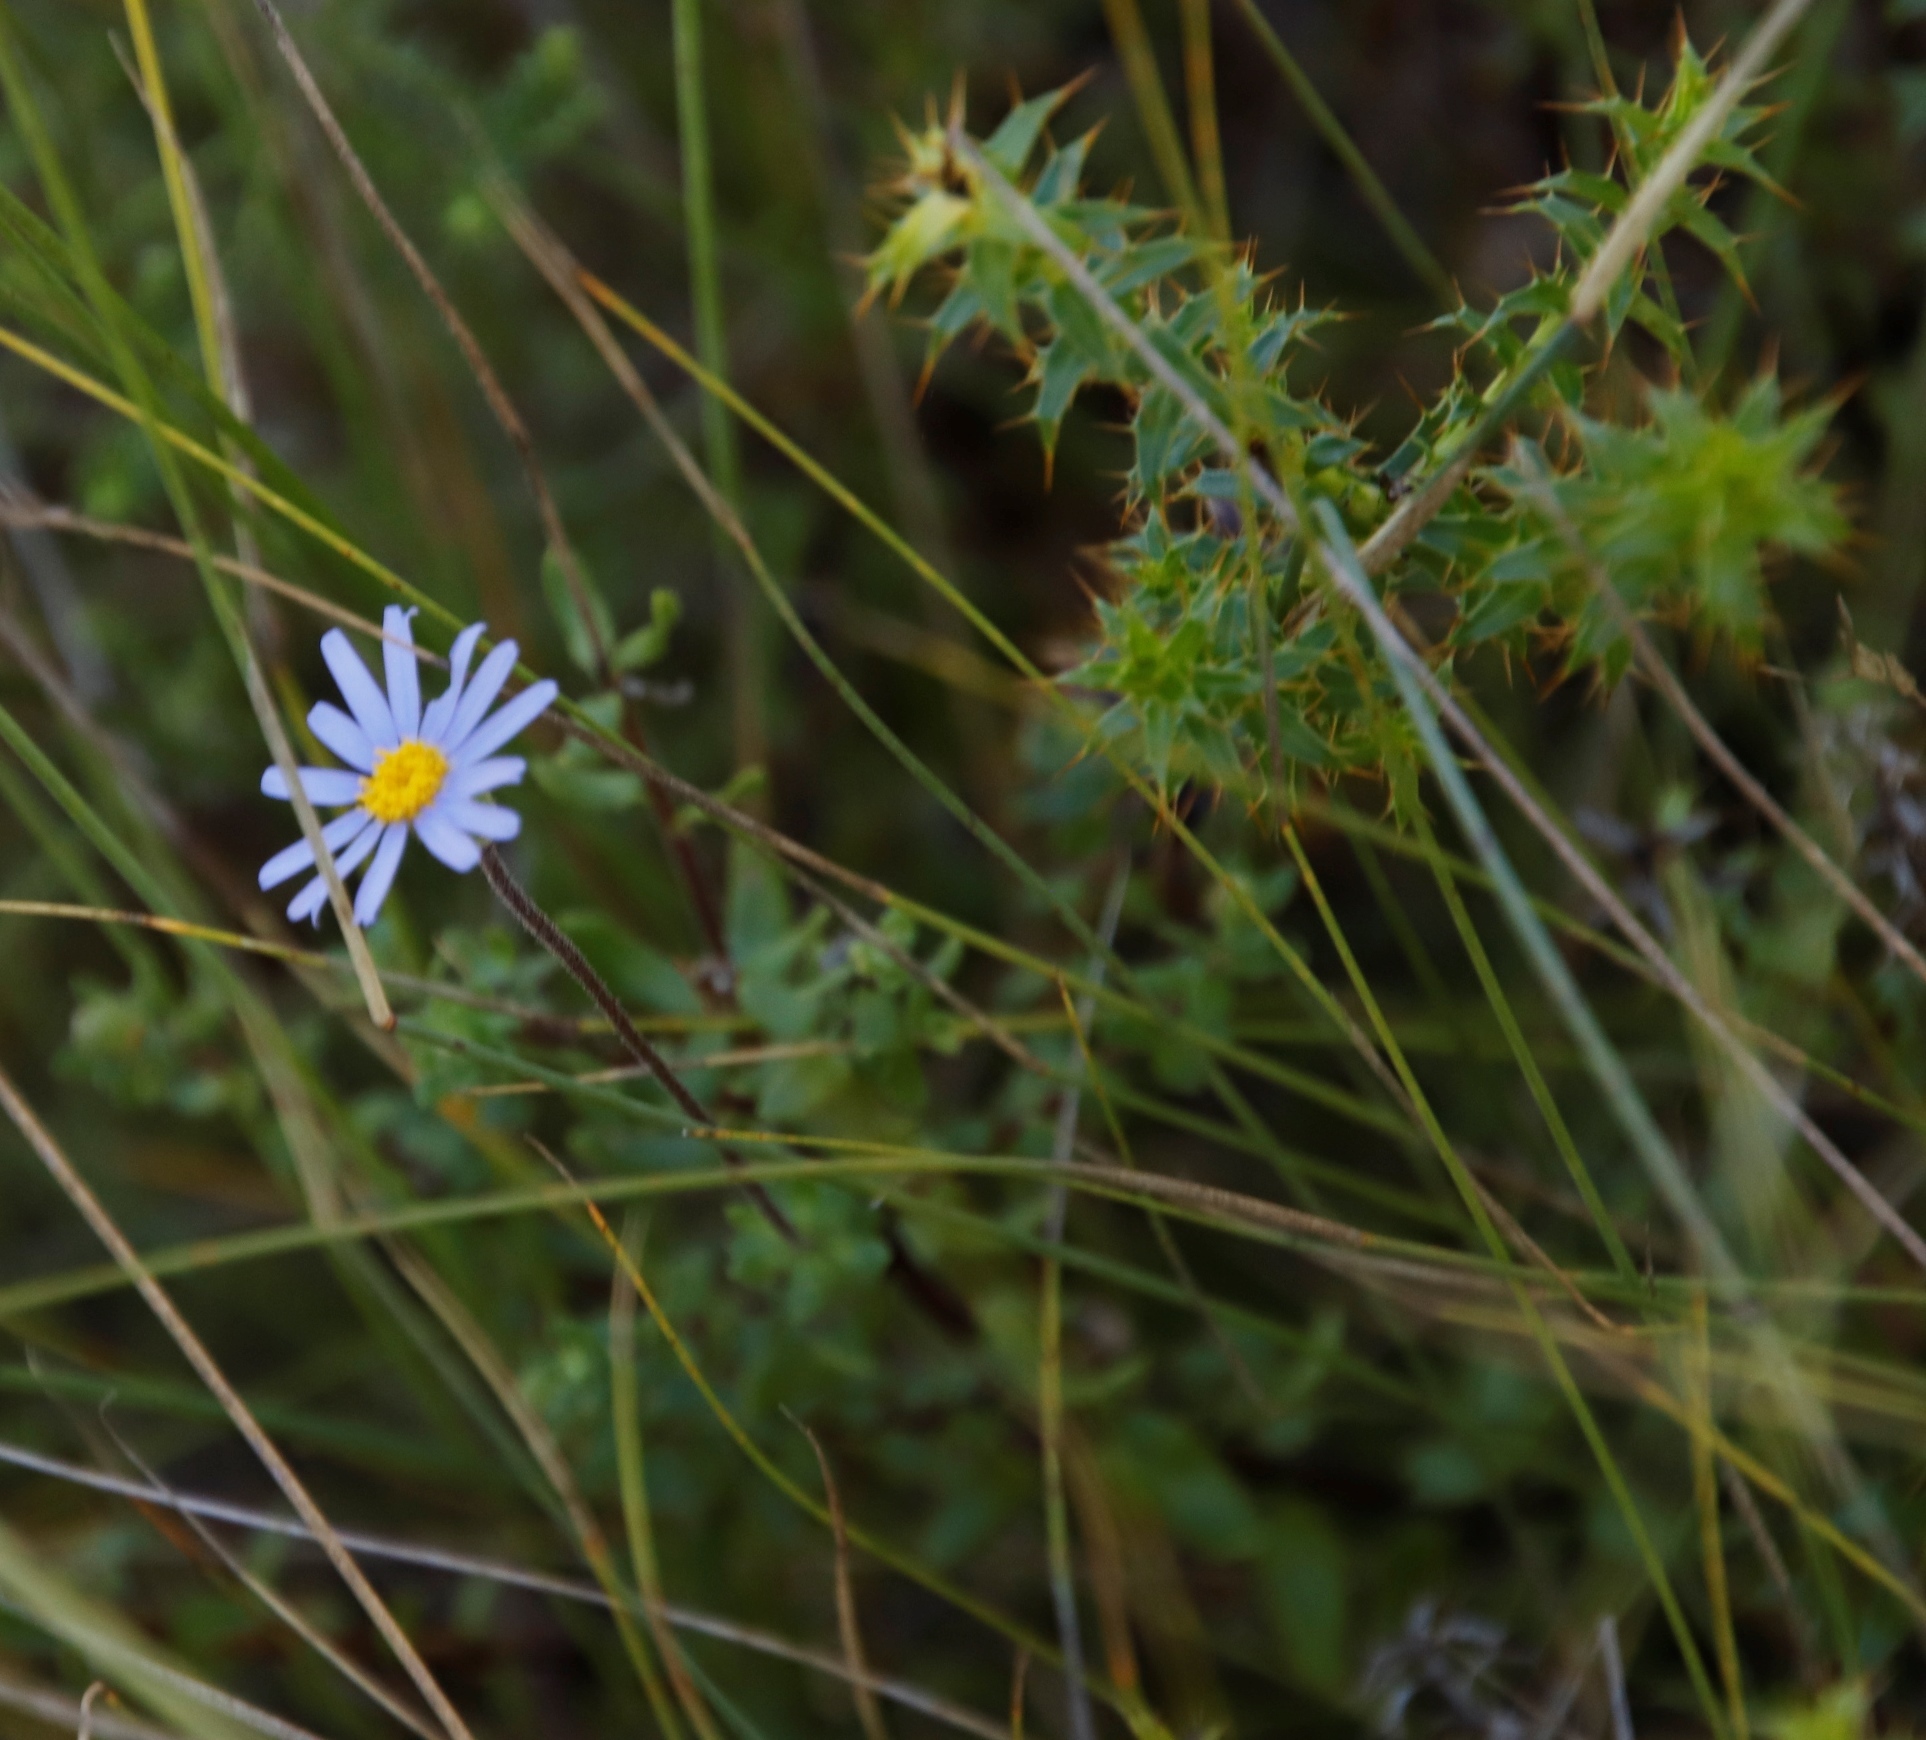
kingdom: Plantae
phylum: Tracheophyta
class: Magnoliopsida
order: Asterales
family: Asteraceae
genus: Cullumia
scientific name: Cullumia setosa
